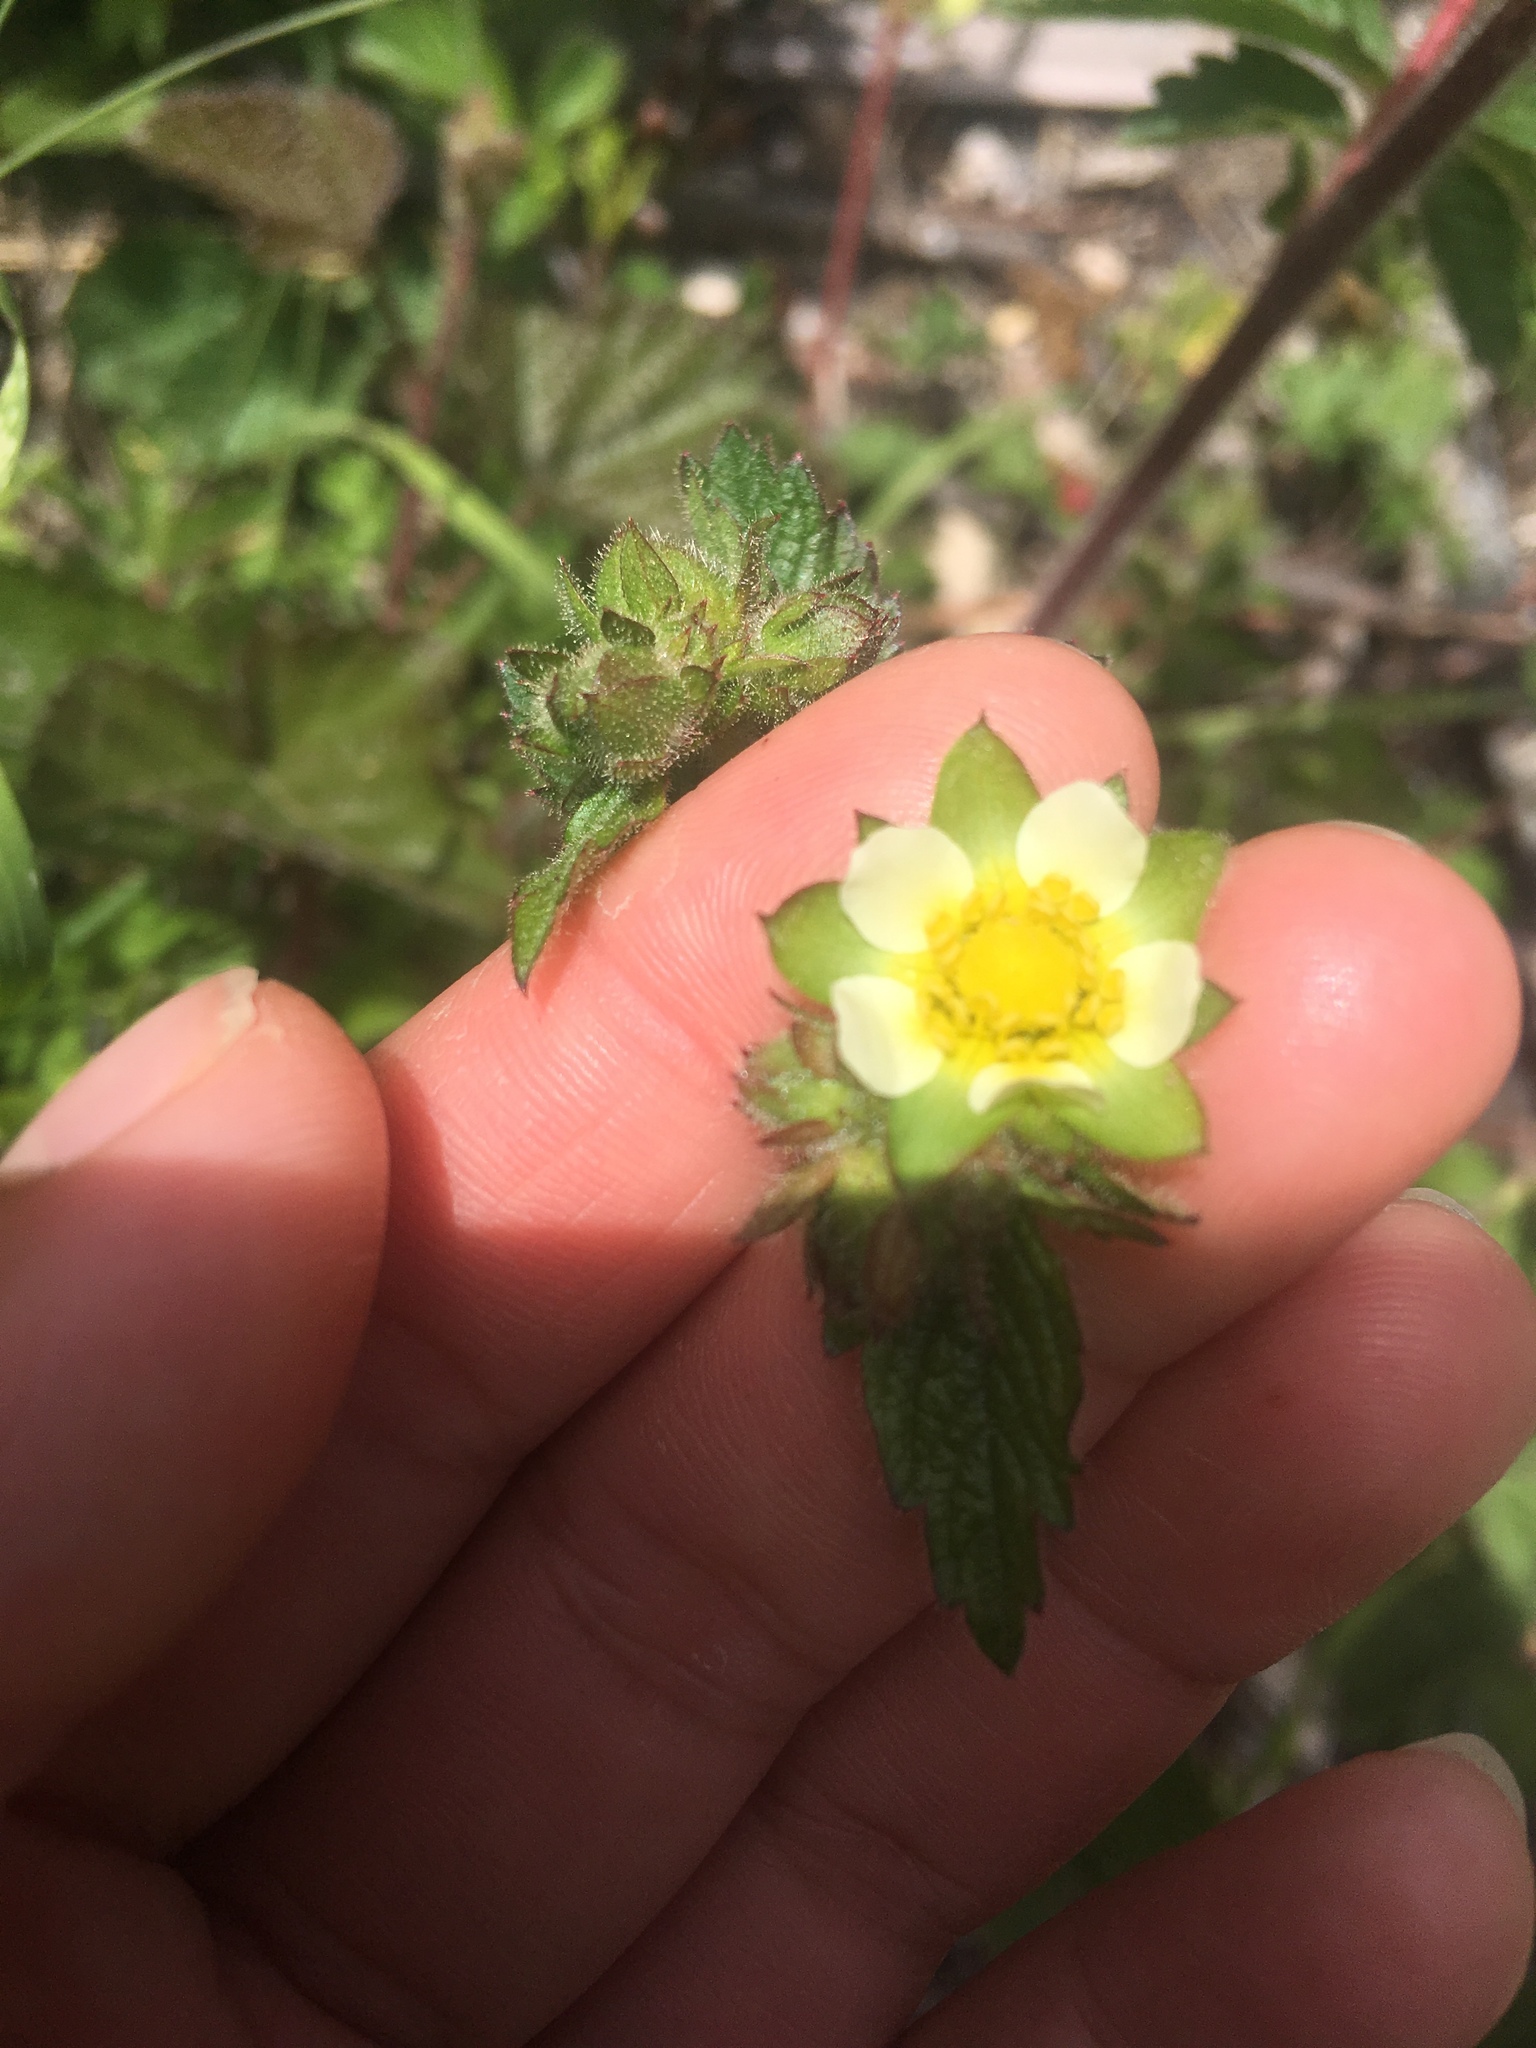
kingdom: Plantae
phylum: Tracheophyta
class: Magnoliopsida
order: Rosales
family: Rosaceae
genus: Drymocallis
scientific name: Drymocallis glandulosa
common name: Sticky cinquefoil
